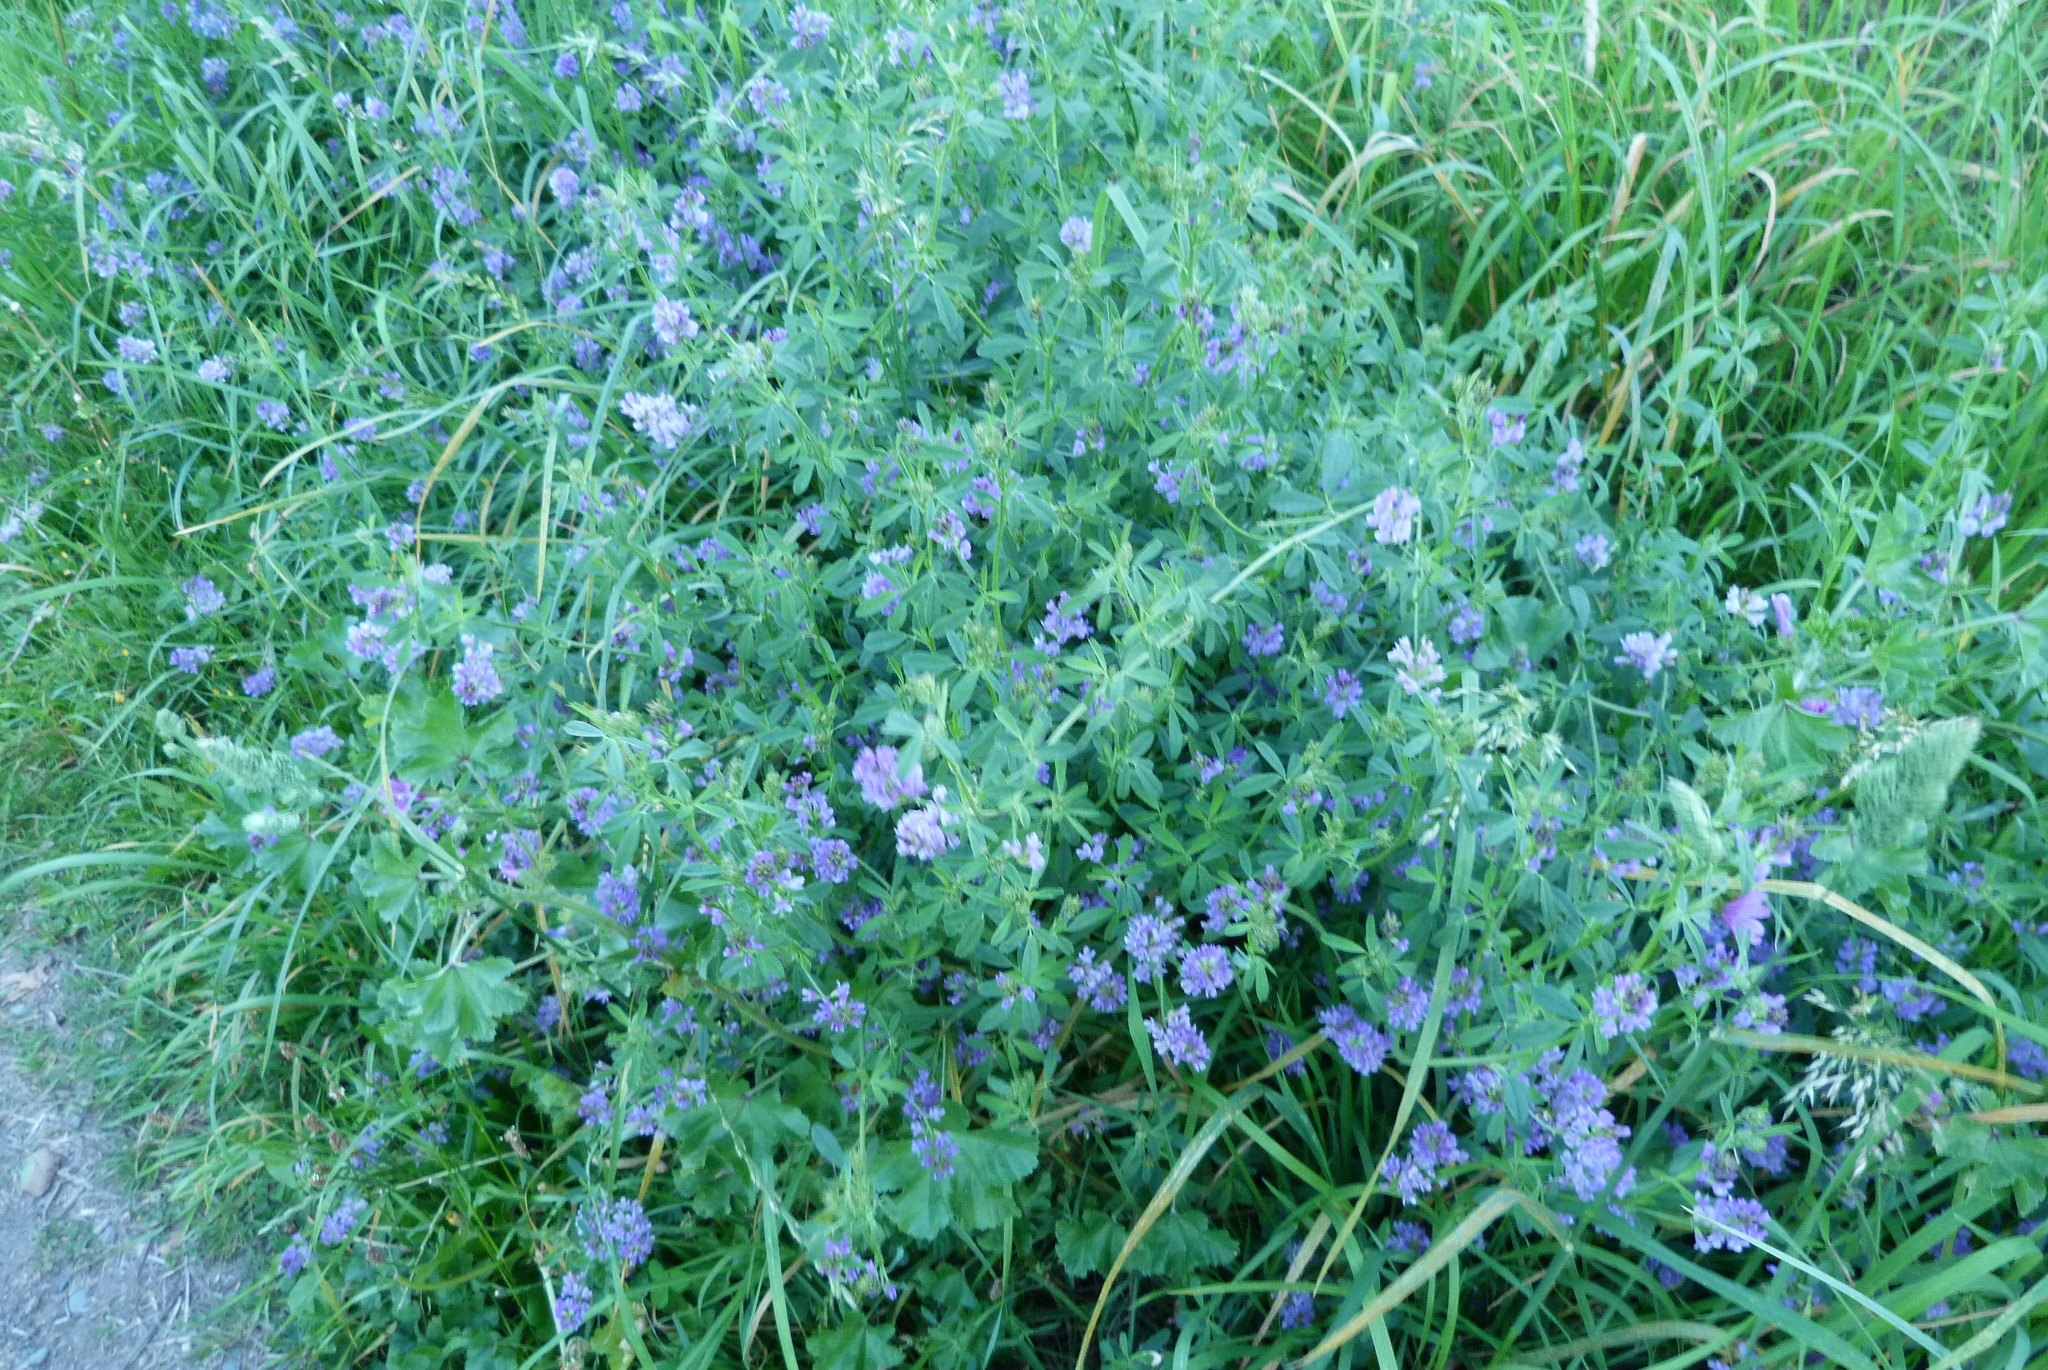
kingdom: Plantae
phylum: Tracheophyta
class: Magnoliopsida
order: Fabales
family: Fabaceae
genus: Medicago
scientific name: Medicago sativa
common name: Alfalfa
